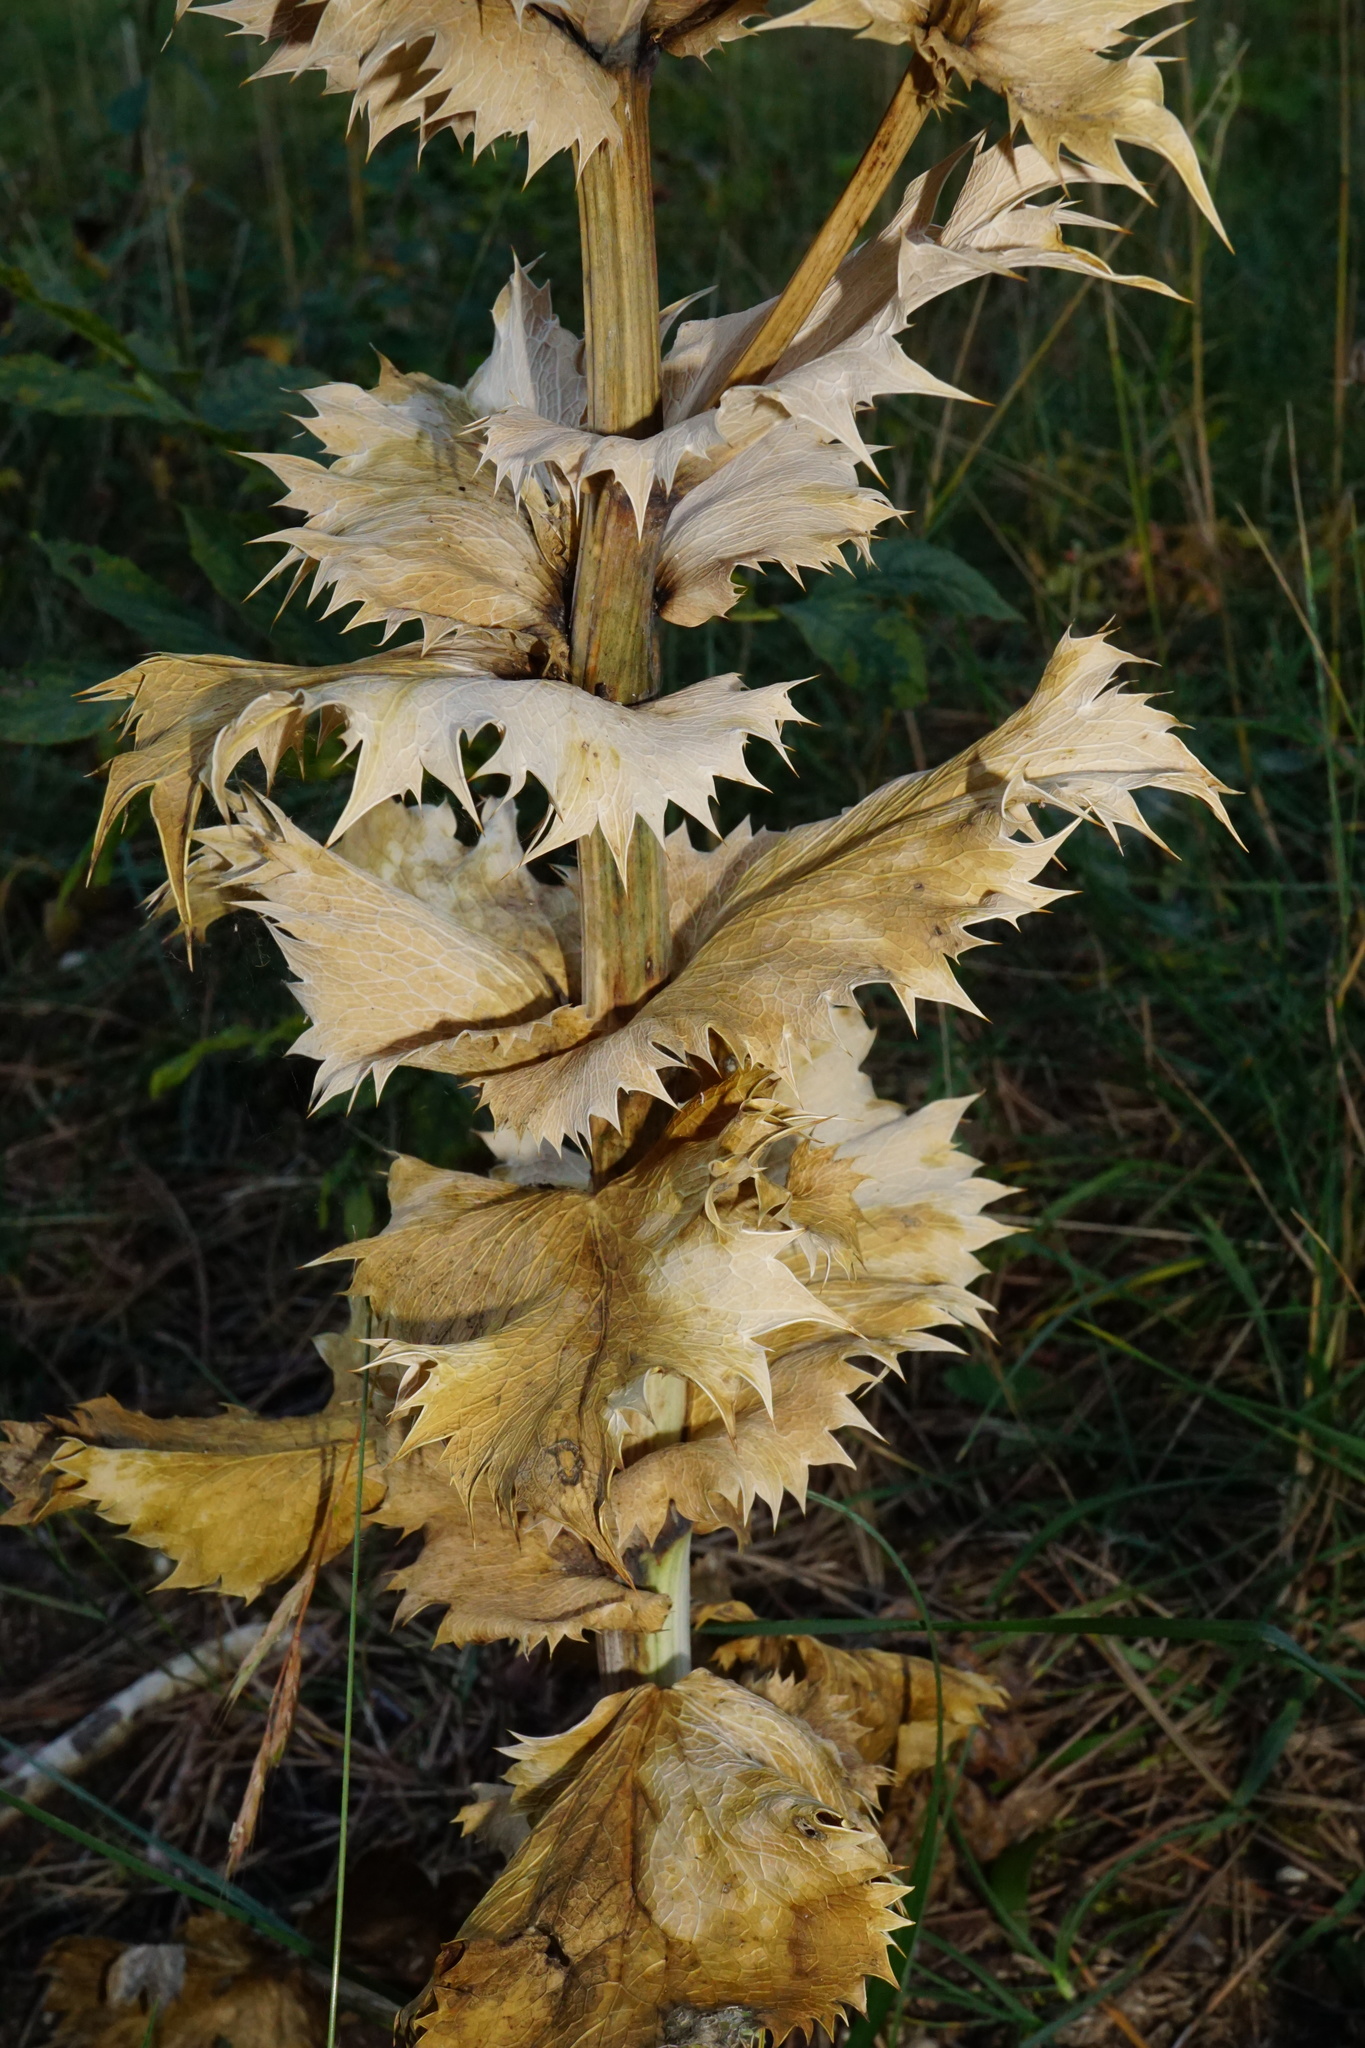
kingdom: Plantae
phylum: Tracheophyta
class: Magnoliopsida
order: Apiales
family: Apiaceae
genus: Eryngium
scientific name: Eryngium giganteum
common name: Tall eryngo
